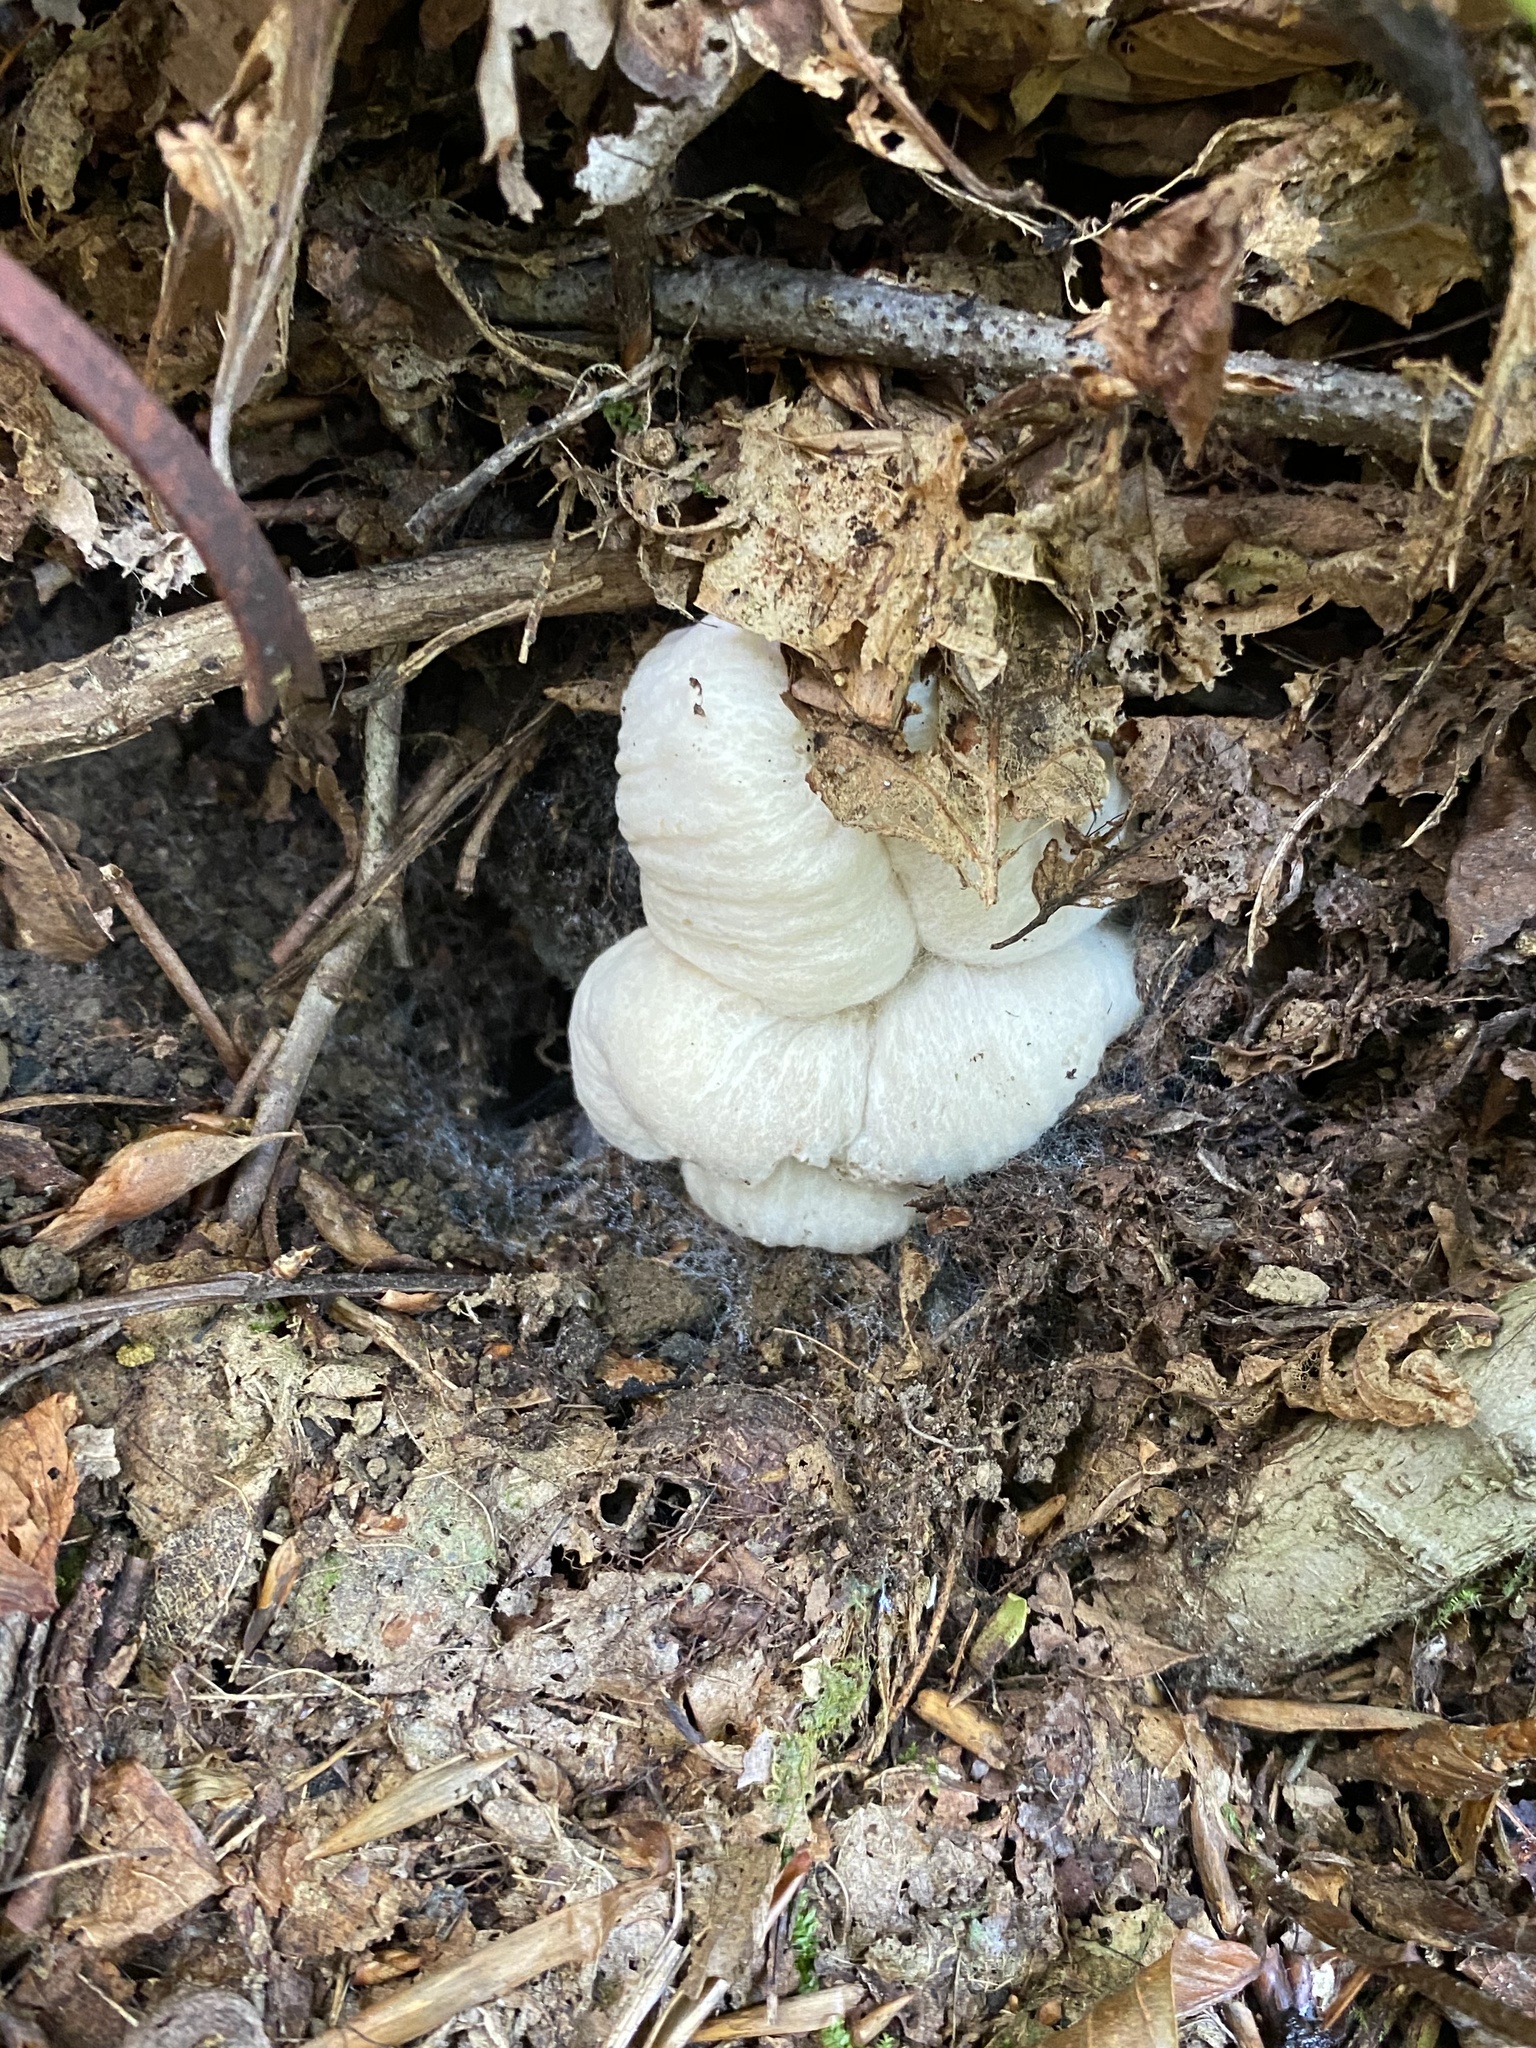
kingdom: Fungi
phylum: Basidiomycota
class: Agaricomycetes
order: Agaricales
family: Entolomataceae
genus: Entoloma
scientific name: Entoloma abortivum
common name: Aborted entoloma
